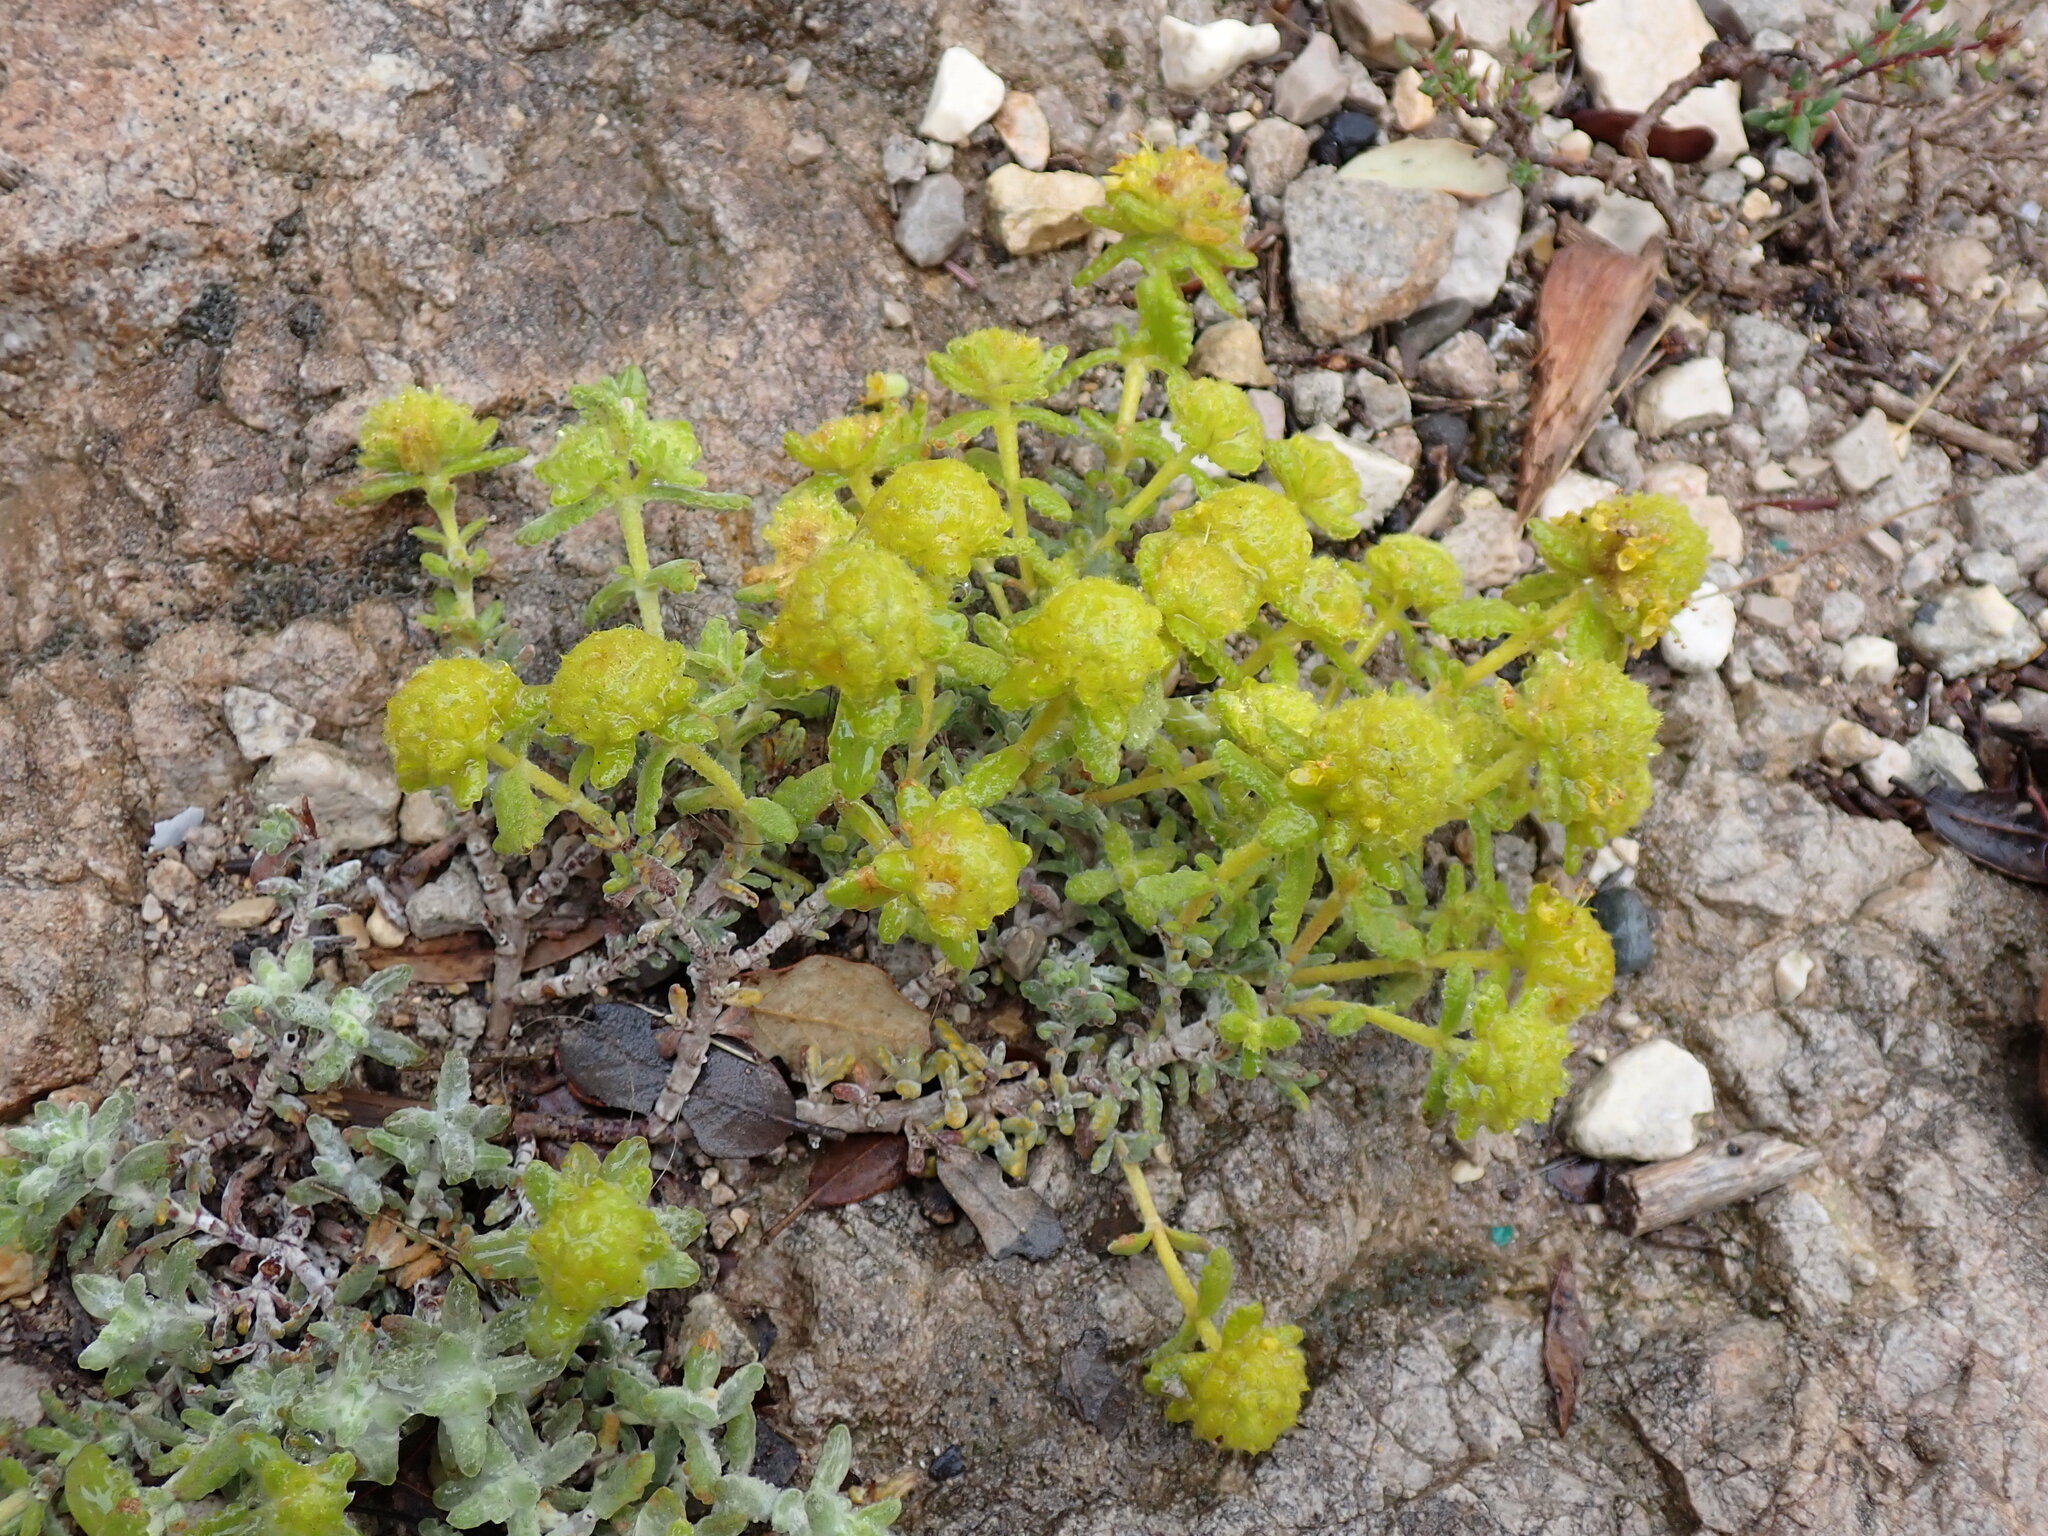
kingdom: Plantae
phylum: Tracheophyta
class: Magnoliopsida
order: Lamiales
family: Lamiaceae
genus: Teucrium
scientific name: Teucrium aureum
